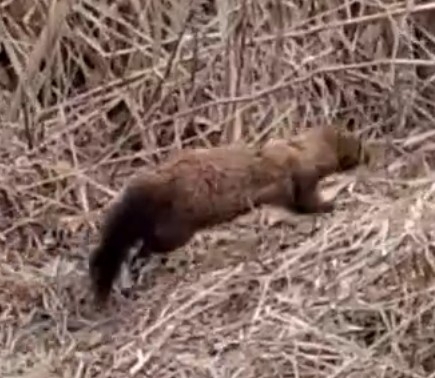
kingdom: Animalia
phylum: Chordata
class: Mammalia
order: Carnivora
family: Mustelidae
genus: Mustela
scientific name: Mustela
